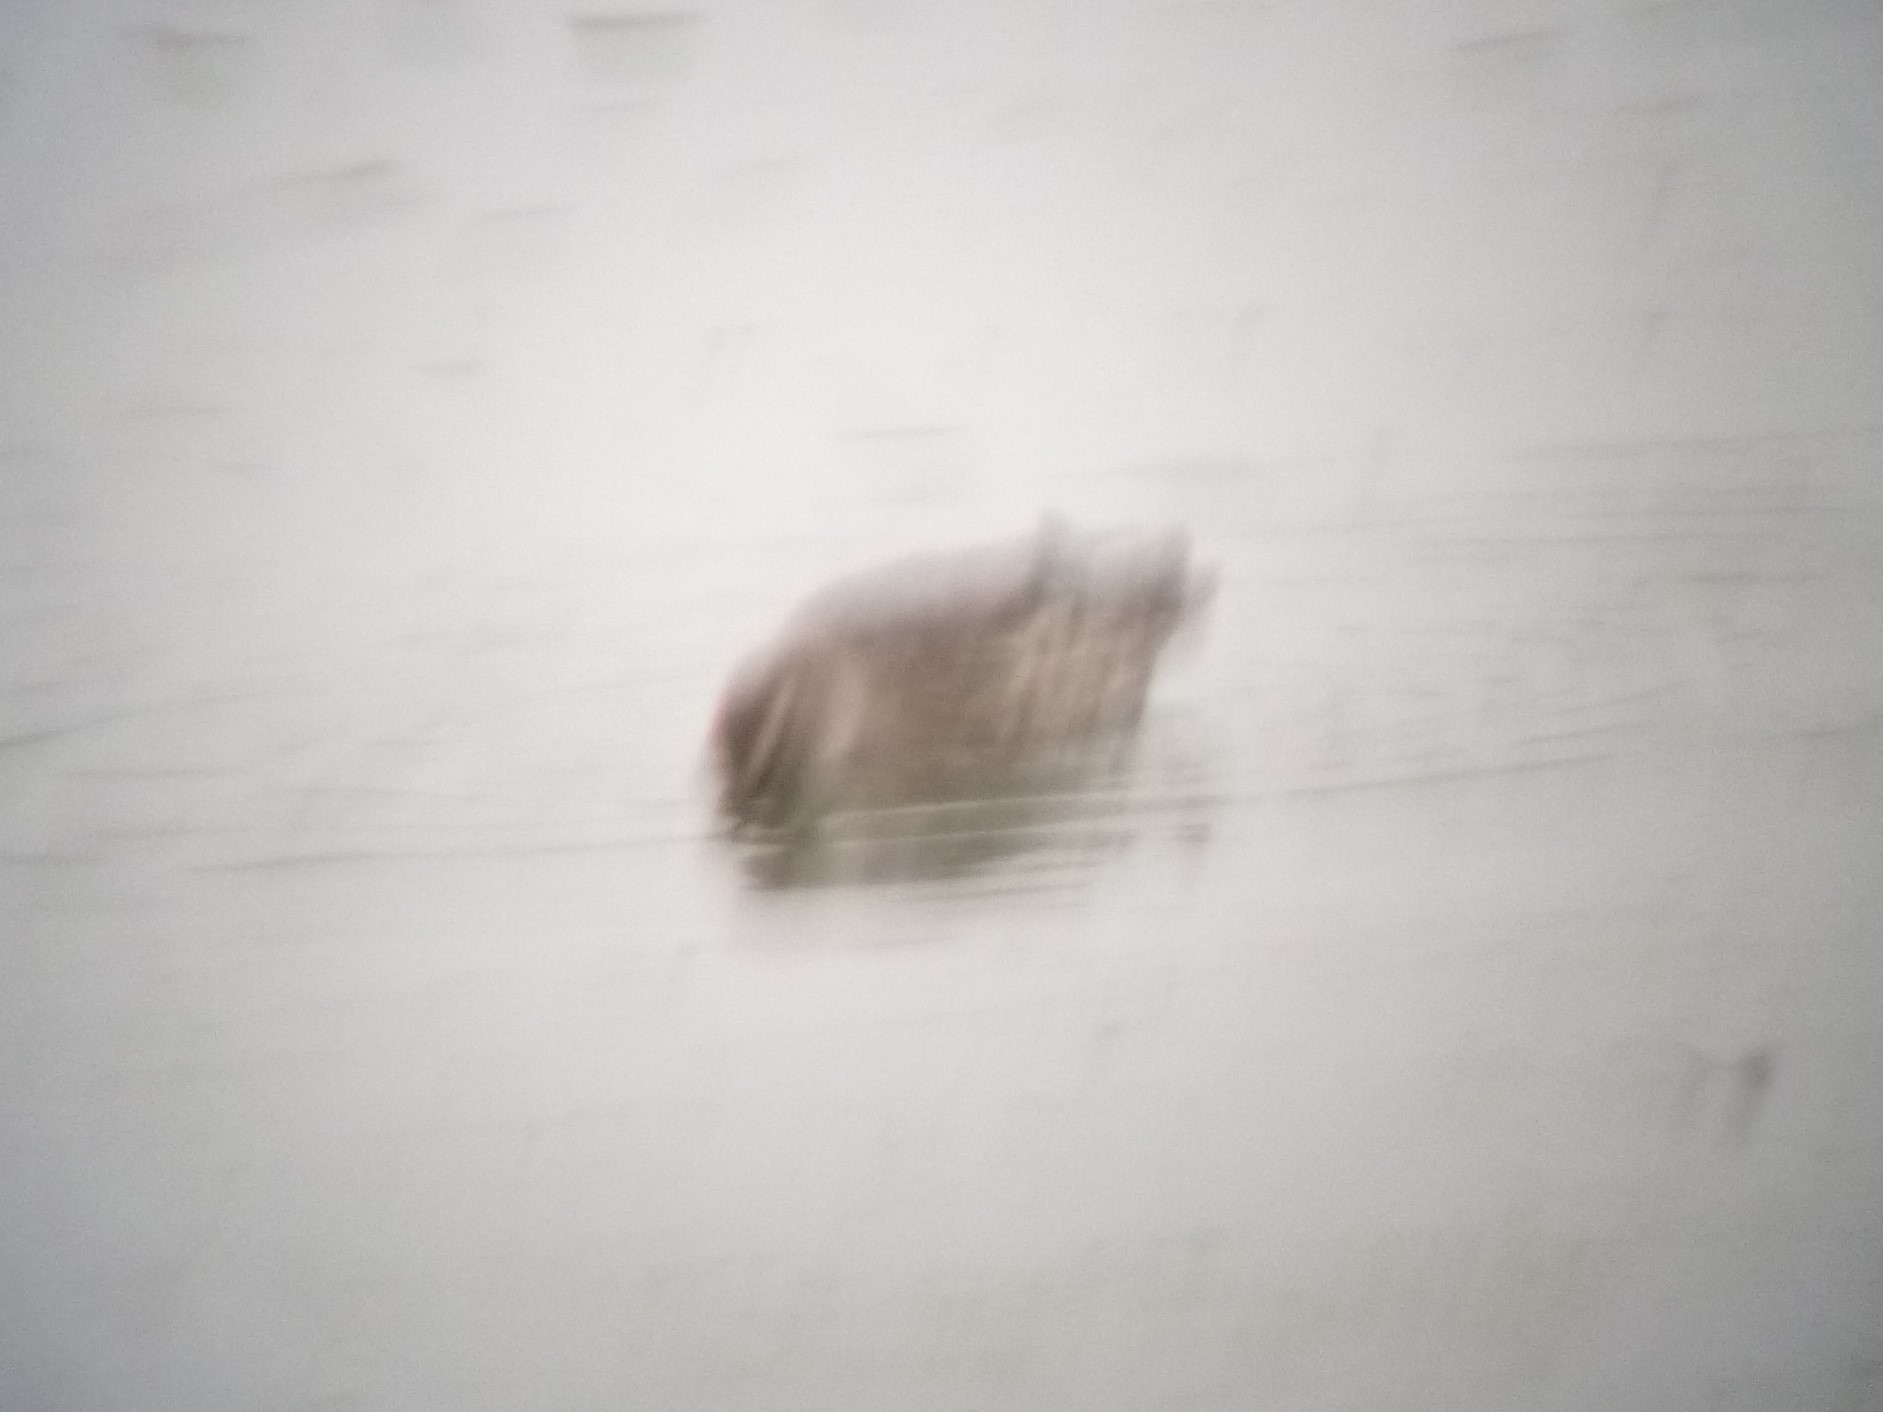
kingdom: Animalia
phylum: Chordata
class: Aves
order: Anseriformes
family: Anatidae
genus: Spatula
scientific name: Spatula querquedula
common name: Garganey
